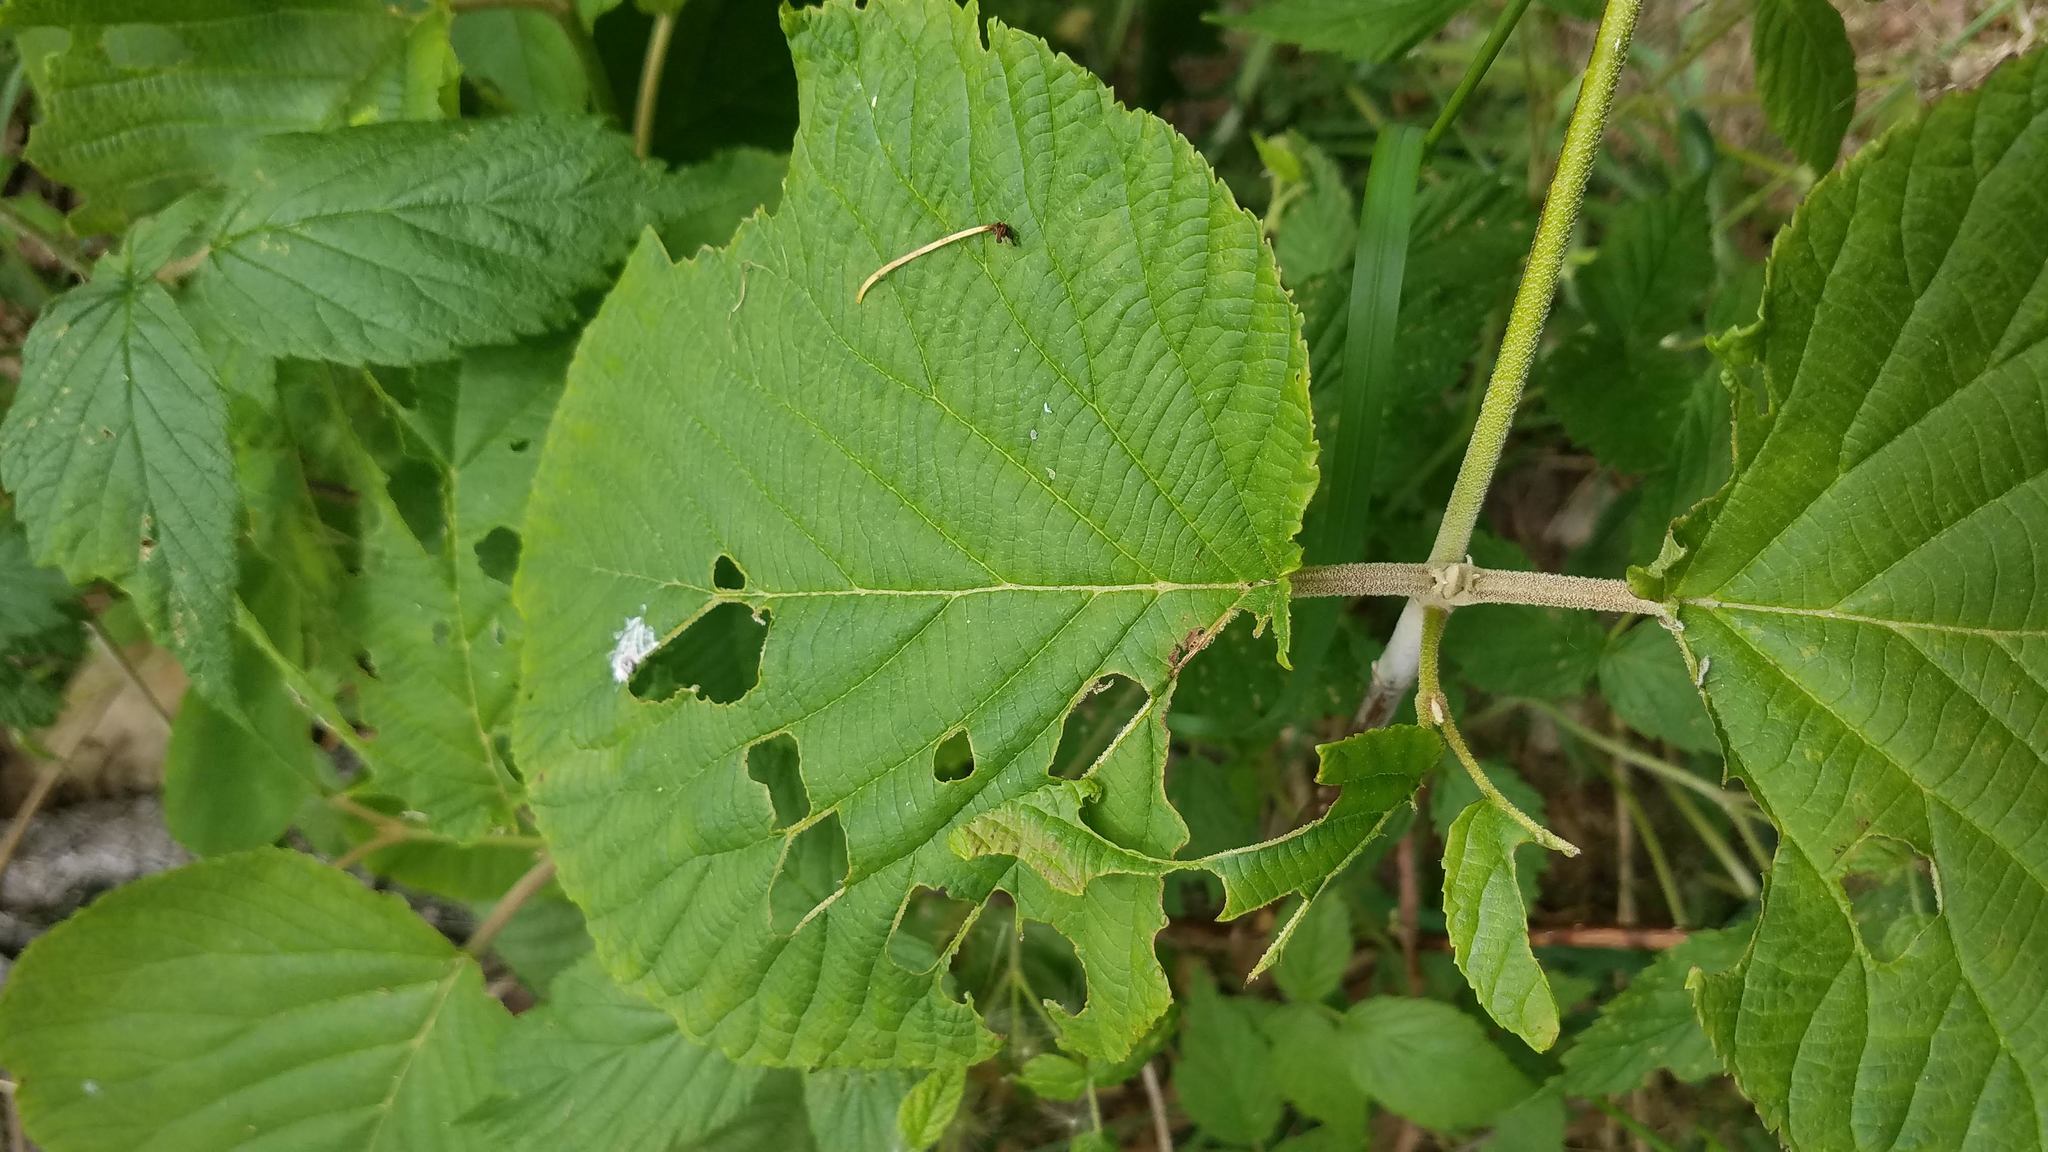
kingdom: Plantae
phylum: Tracheophyta
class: Magnoliopsida
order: Dipsacales
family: Viburnaceae
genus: Viburnum
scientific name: Viburnum lantanoides
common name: Hobblebush
